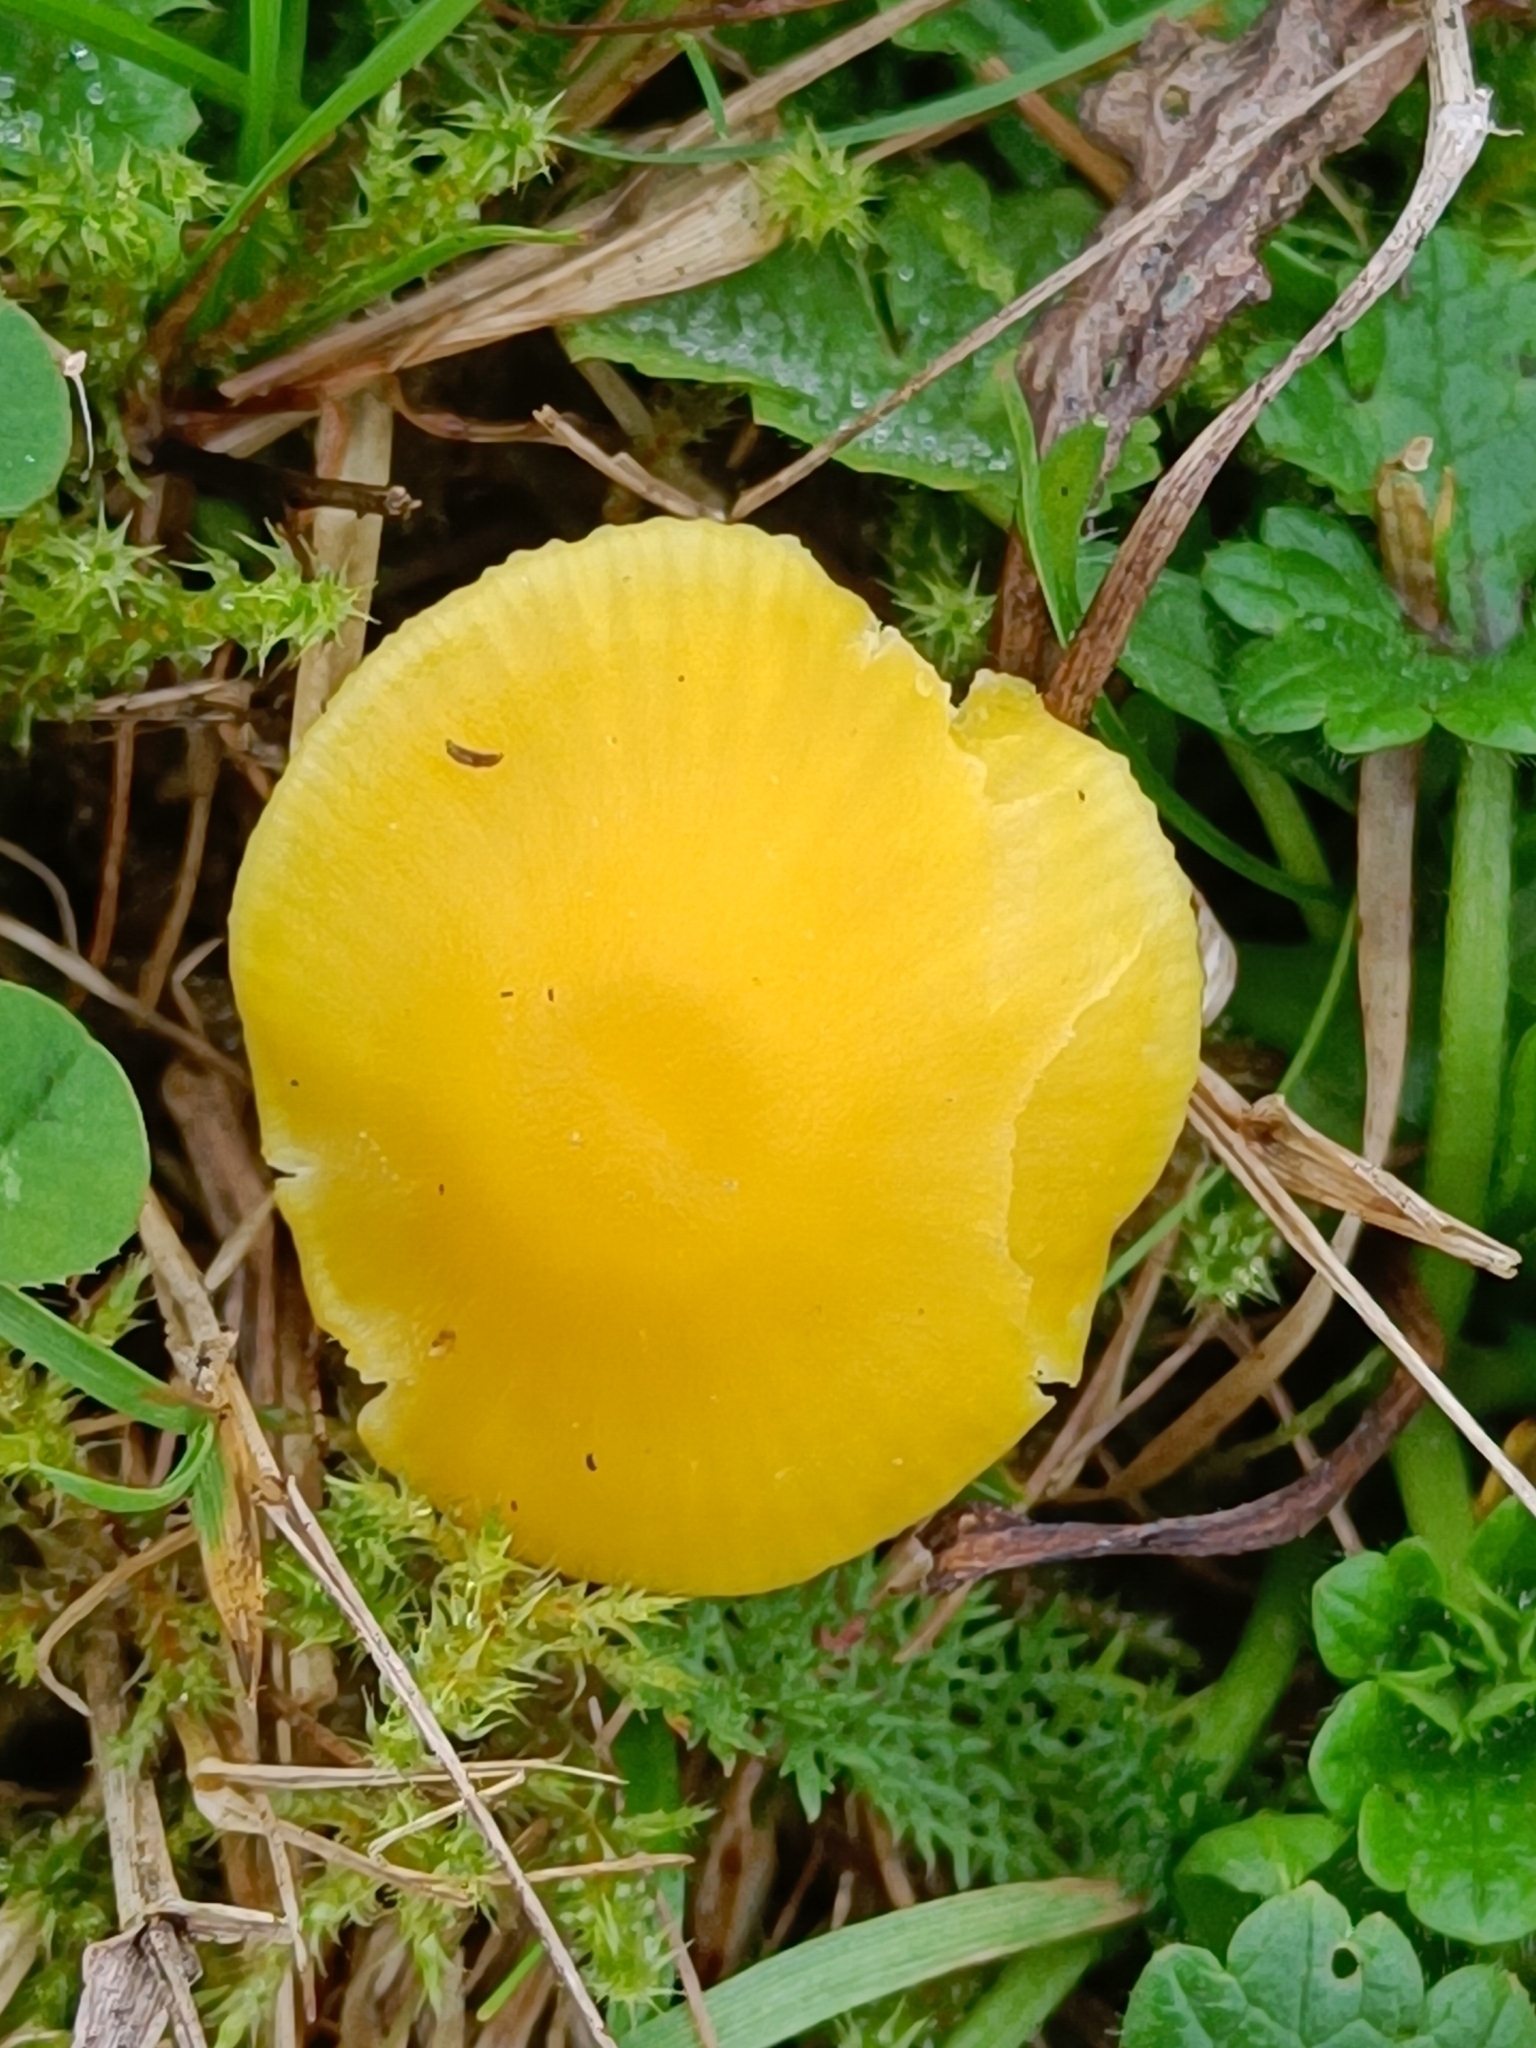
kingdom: Fungi
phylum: Basidiomycota
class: Agaricomycetes
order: Agaricales
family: Hygrophoraceae
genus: Hygrocybe
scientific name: Hygrocybe ceracea
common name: Butter waxcap
